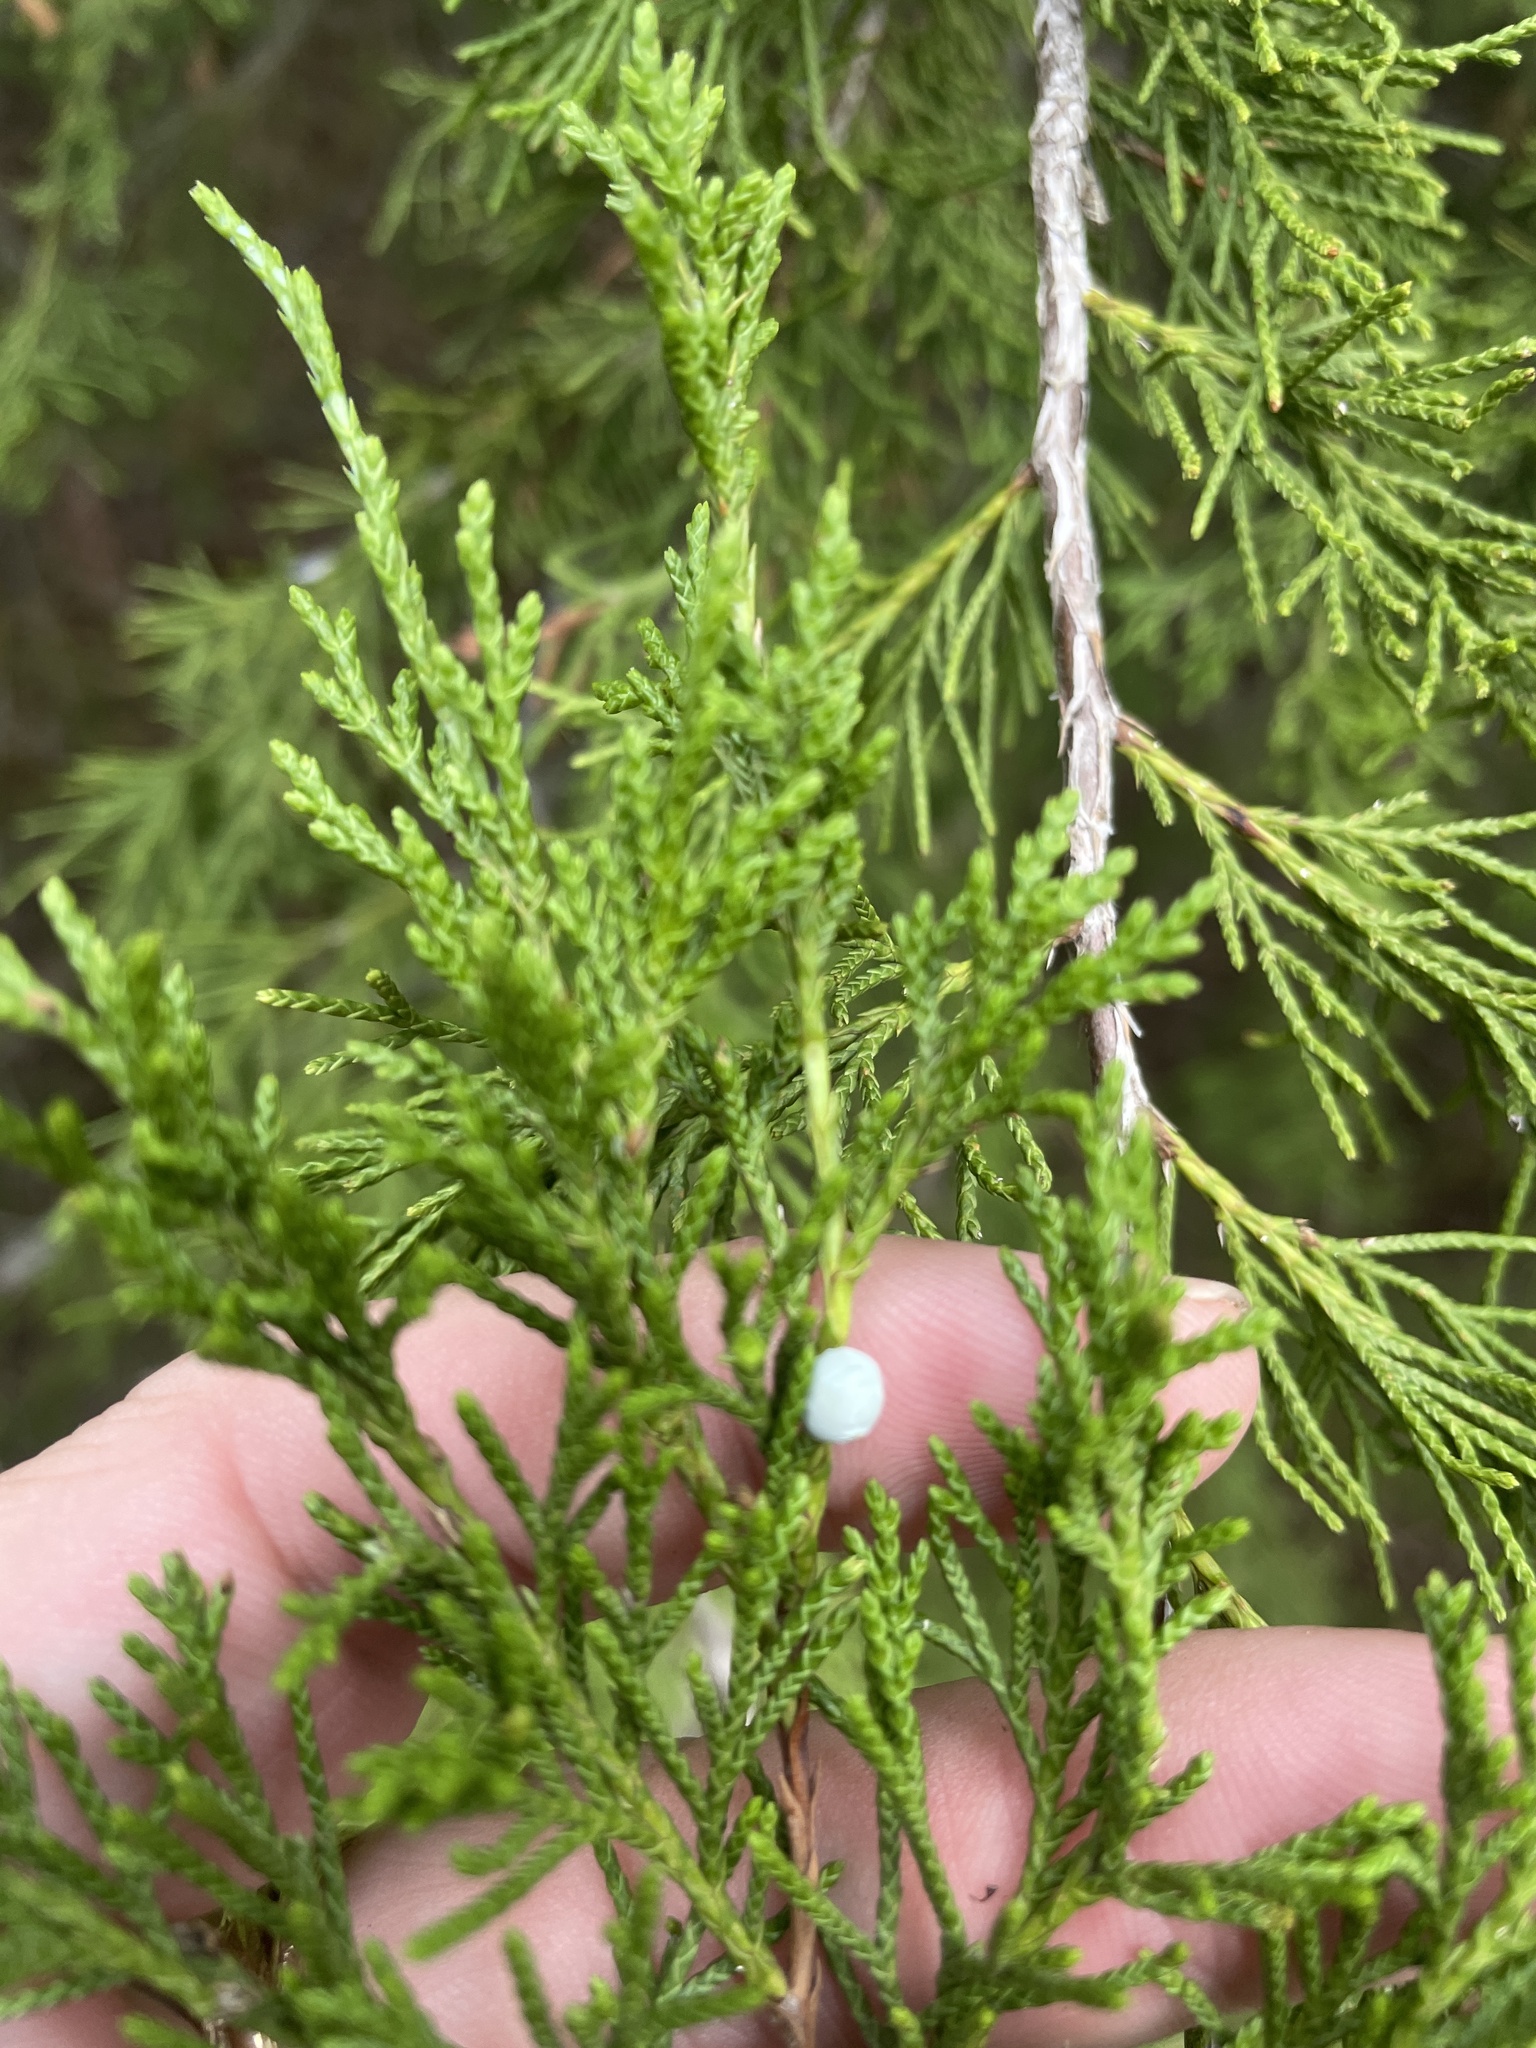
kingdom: Plantae
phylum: Tracheophyta
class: Pinopsida
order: Pinales
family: Cupressaceae
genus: Juniperus
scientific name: Juniperus virginiana
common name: Red juniper
